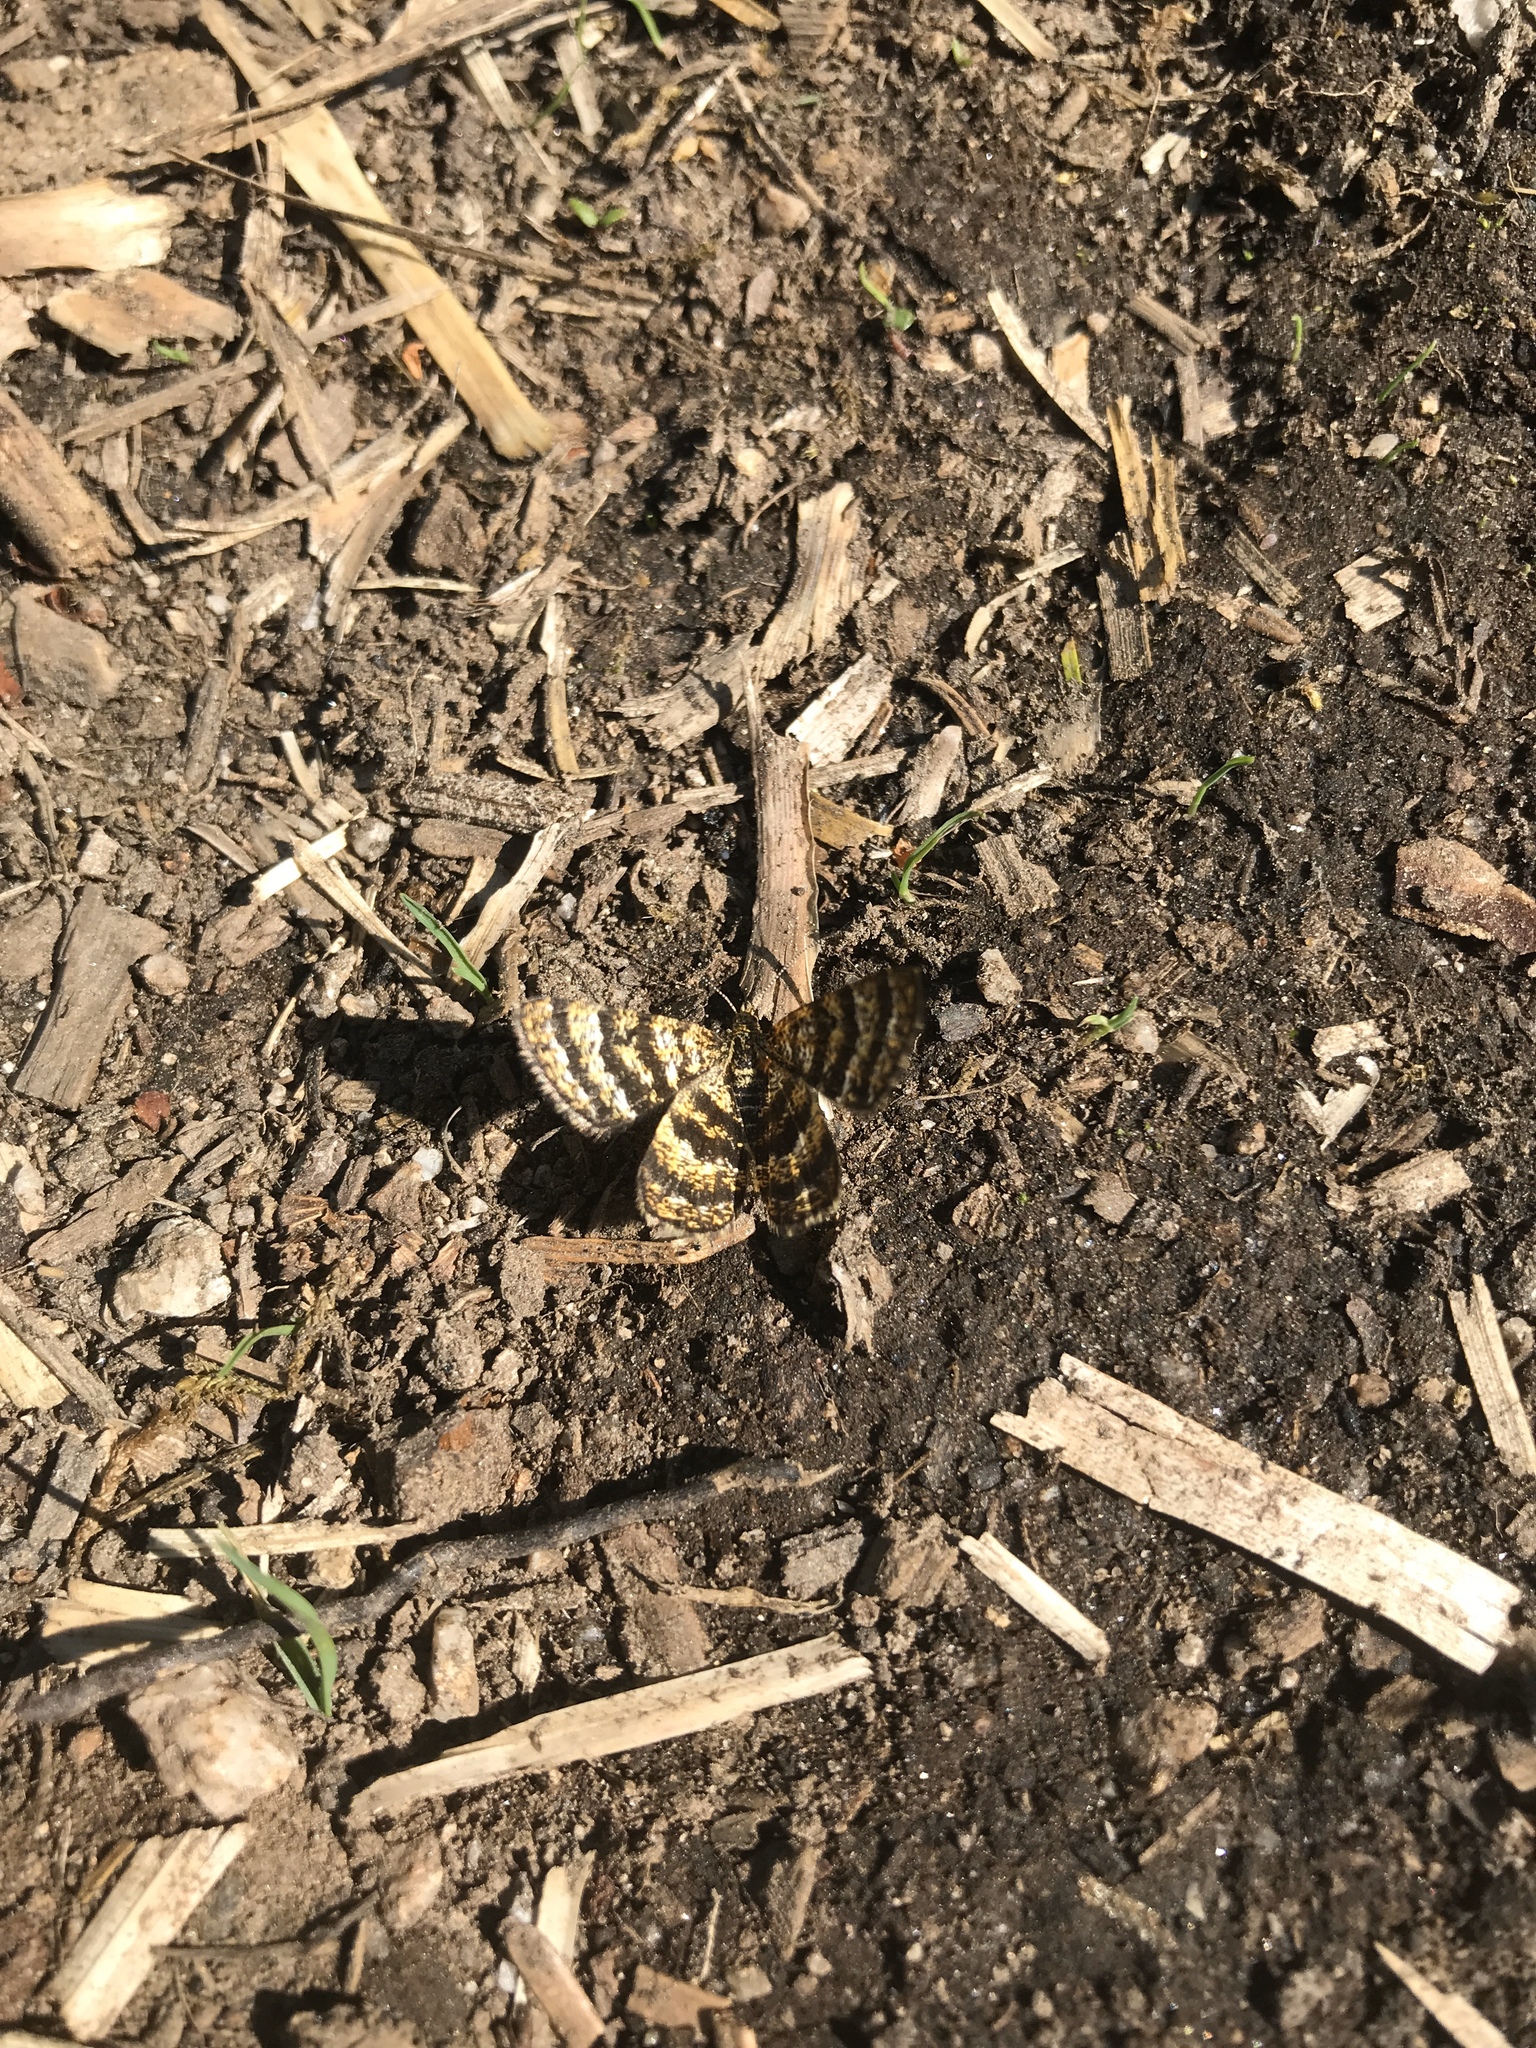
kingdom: Animalia
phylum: Arthropoda
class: Insecta
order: Lepidoptera
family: Geometridae
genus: Macaria
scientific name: Macaria truncataria
